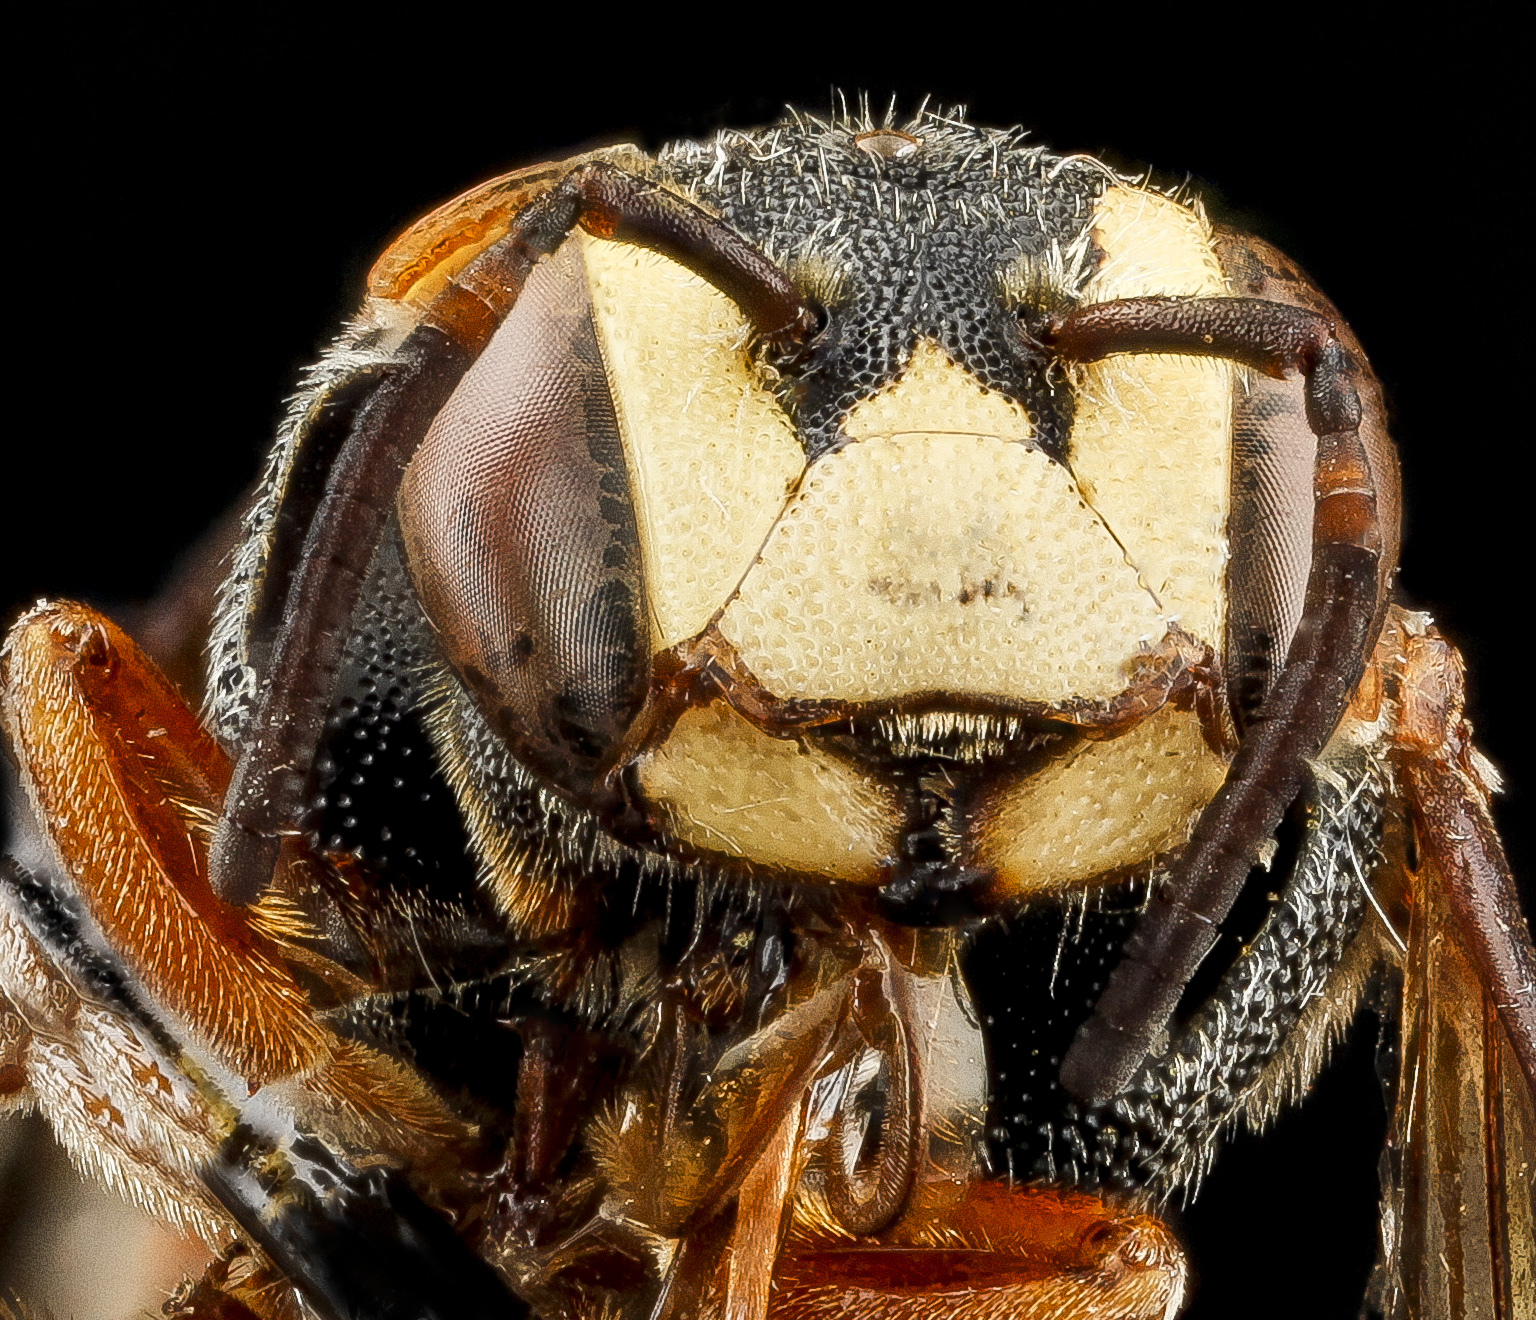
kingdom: Animalia
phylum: Arthropoda
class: Insecta
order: Hymenoptera
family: Megachilidae
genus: Dianthidium
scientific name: Dianthidium ulkei
